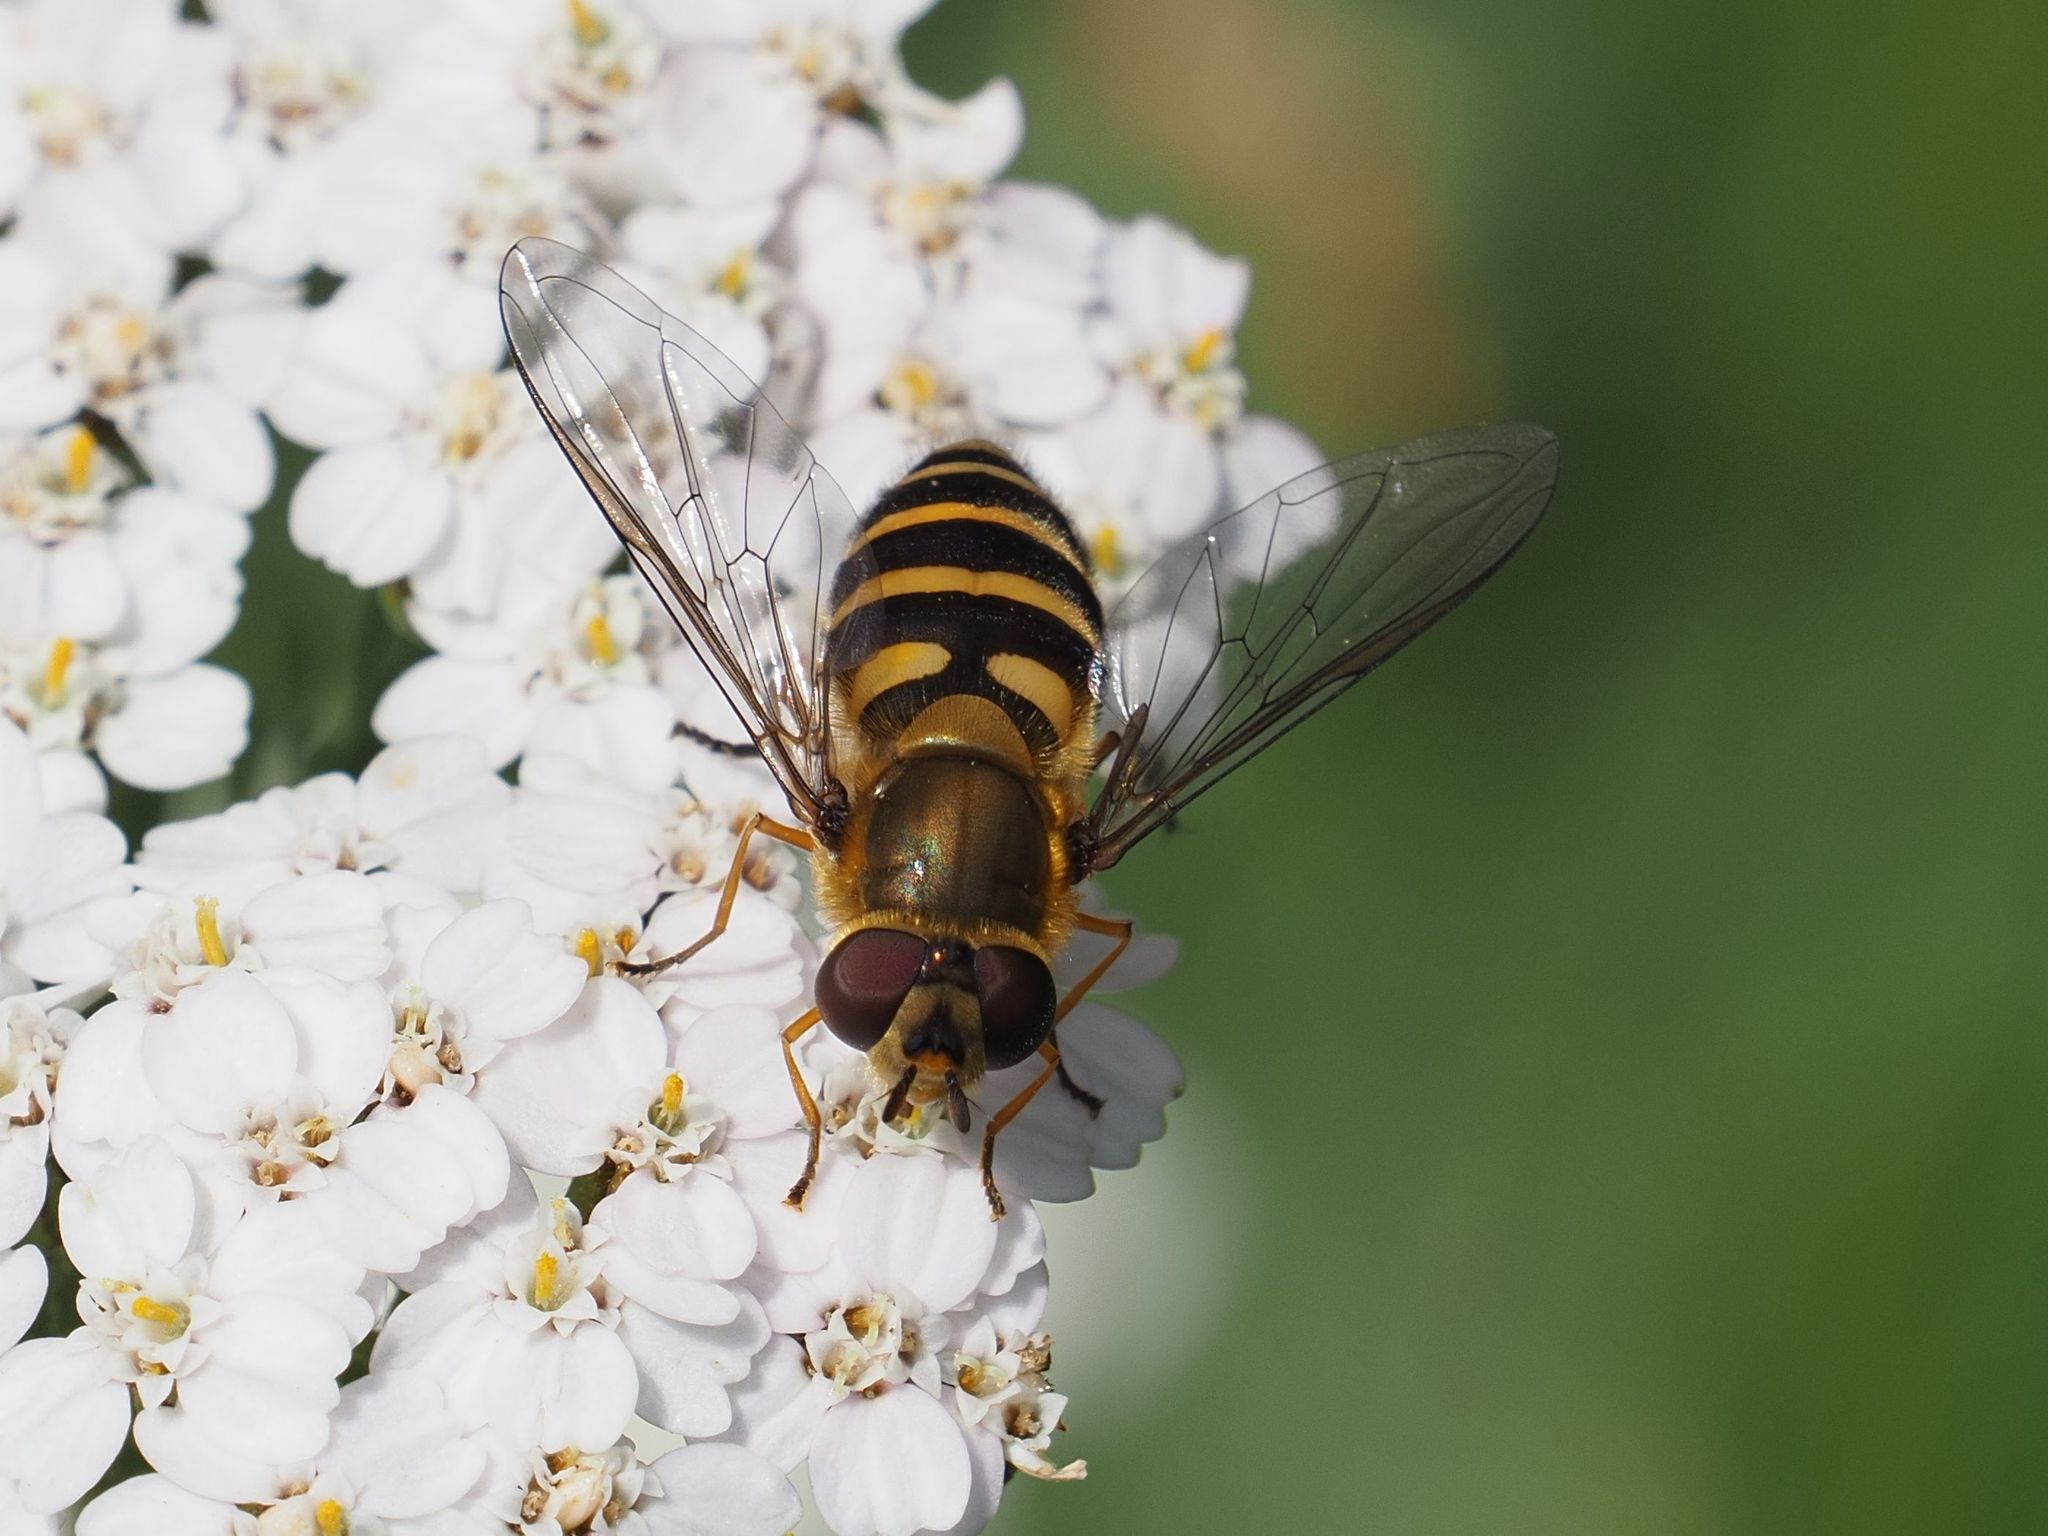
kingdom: Animalia
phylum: Arthropoda
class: Insecta
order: Diptera
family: Syrphidae
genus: Syrphus
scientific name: Syrphus
